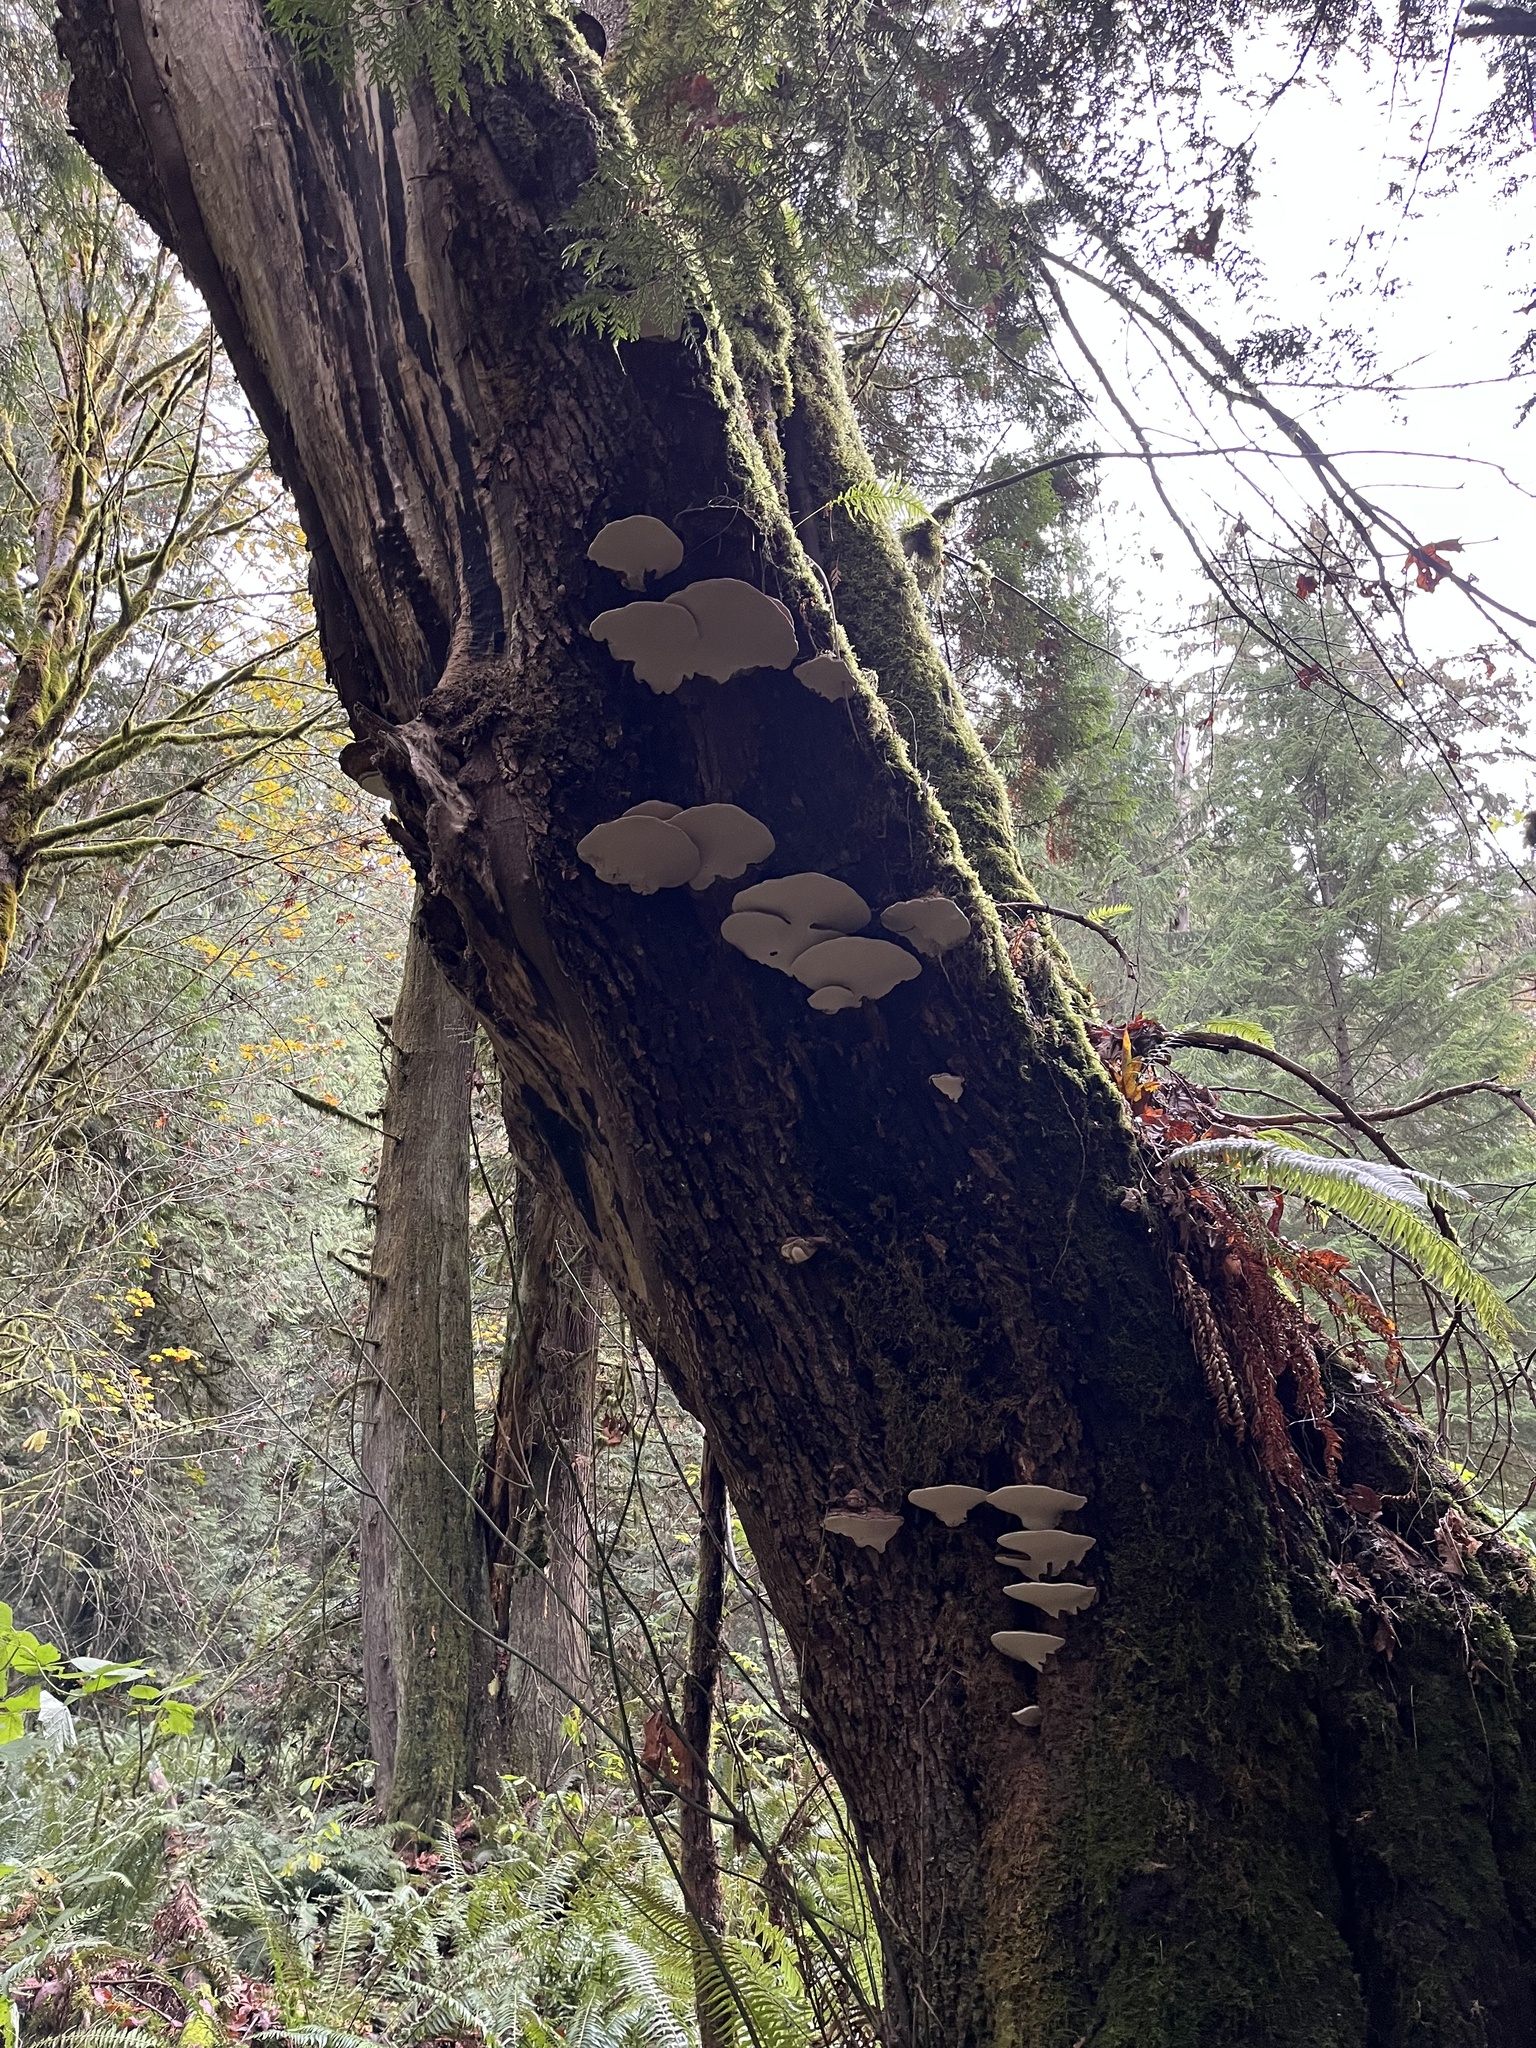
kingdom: Fungi
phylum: Basidiomycota
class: Agaricomycetes
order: Polyporales
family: Polyporaceae
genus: Ganoderma
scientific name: Ganoderma applanatum
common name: Artist's bracket
